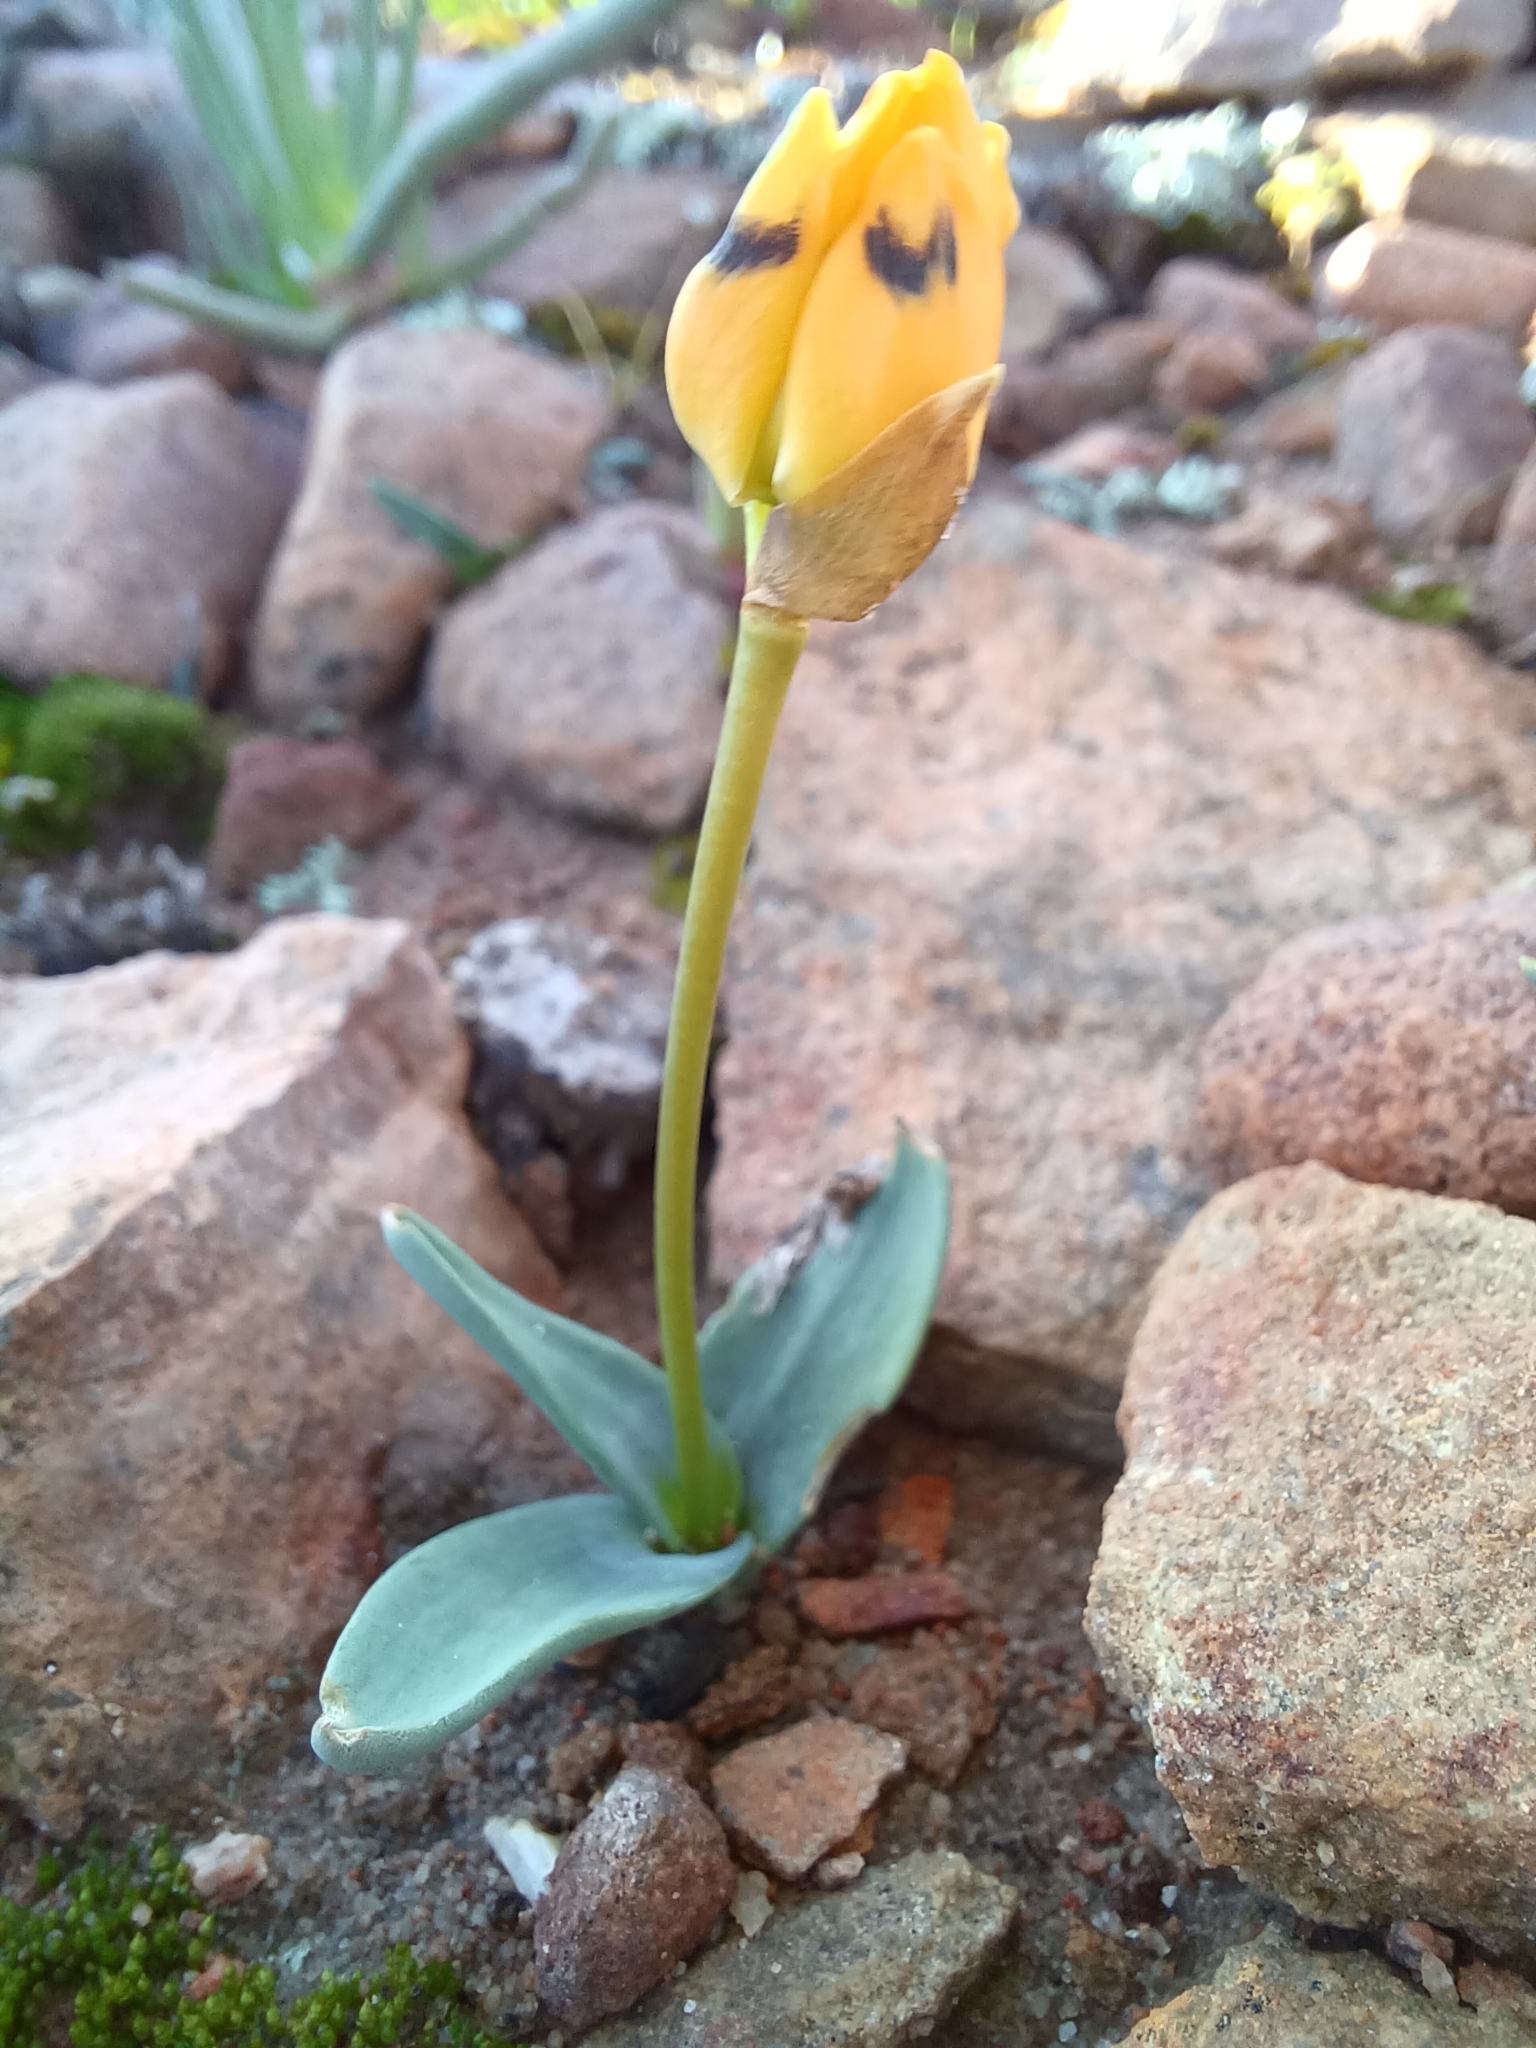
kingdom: Plantae
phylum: Tracheophyta
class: Liliopsida
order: Asparagales
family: Asparagaceae
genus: Ornithogalum
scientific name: Ornithogalum maculatum
